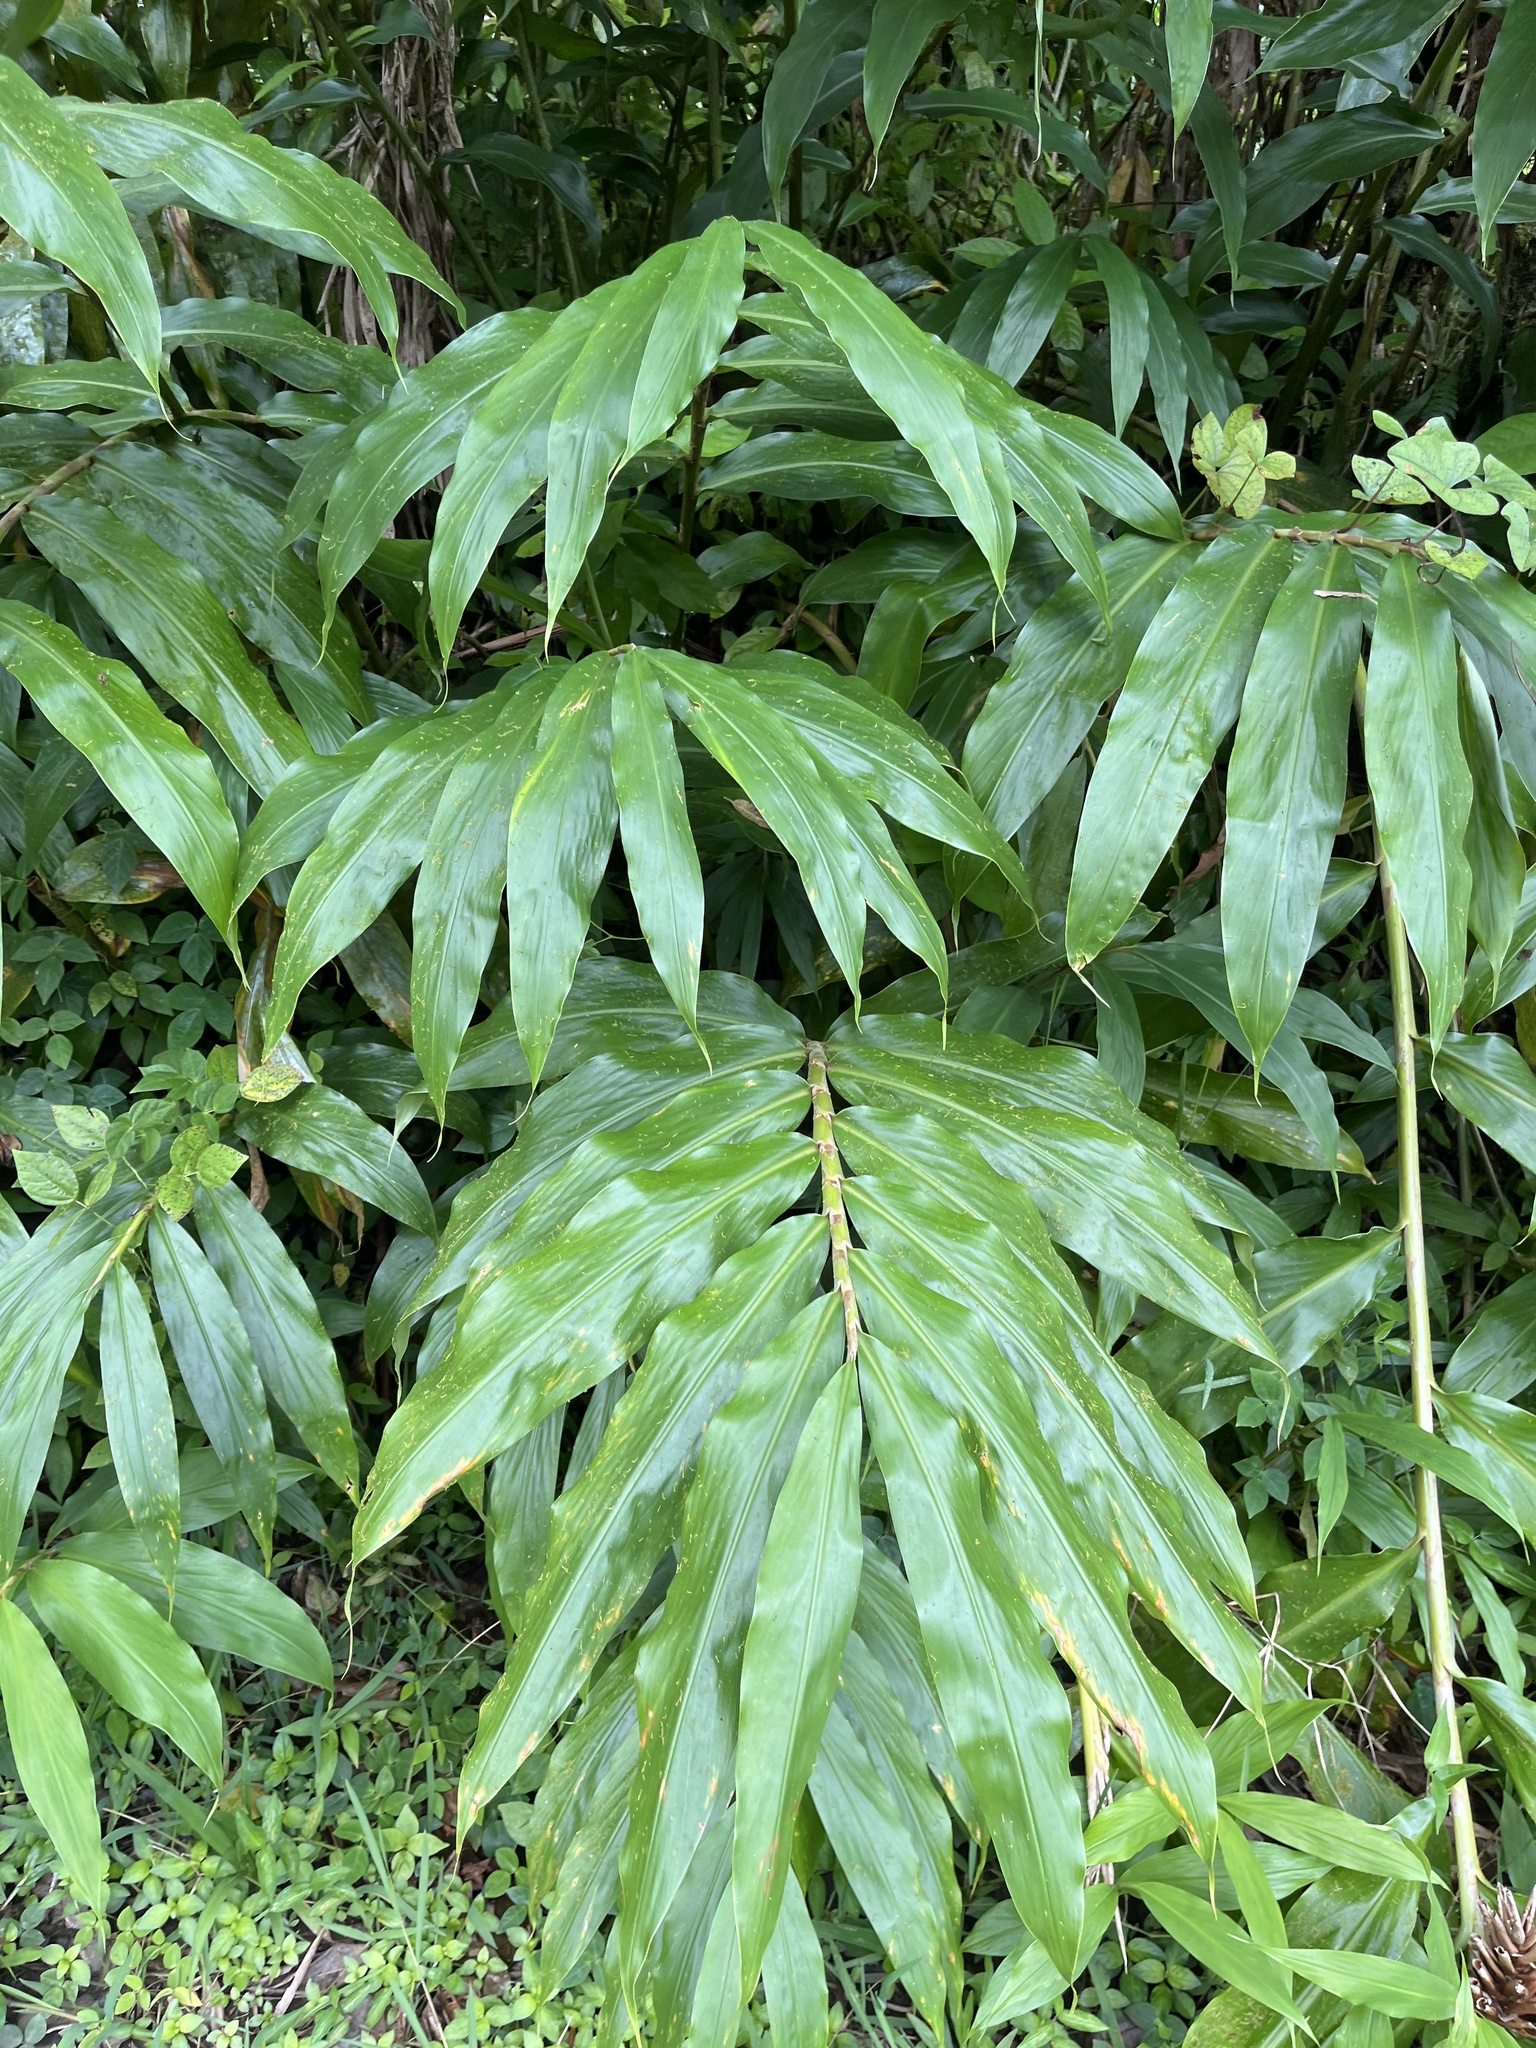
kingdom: Plantae
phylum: Tracheophyta
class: Liliopsida
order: Zingiberales
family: Zingiberaceae
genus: Hedychium
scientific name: Hedychium coronarium
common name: White garland-lily
